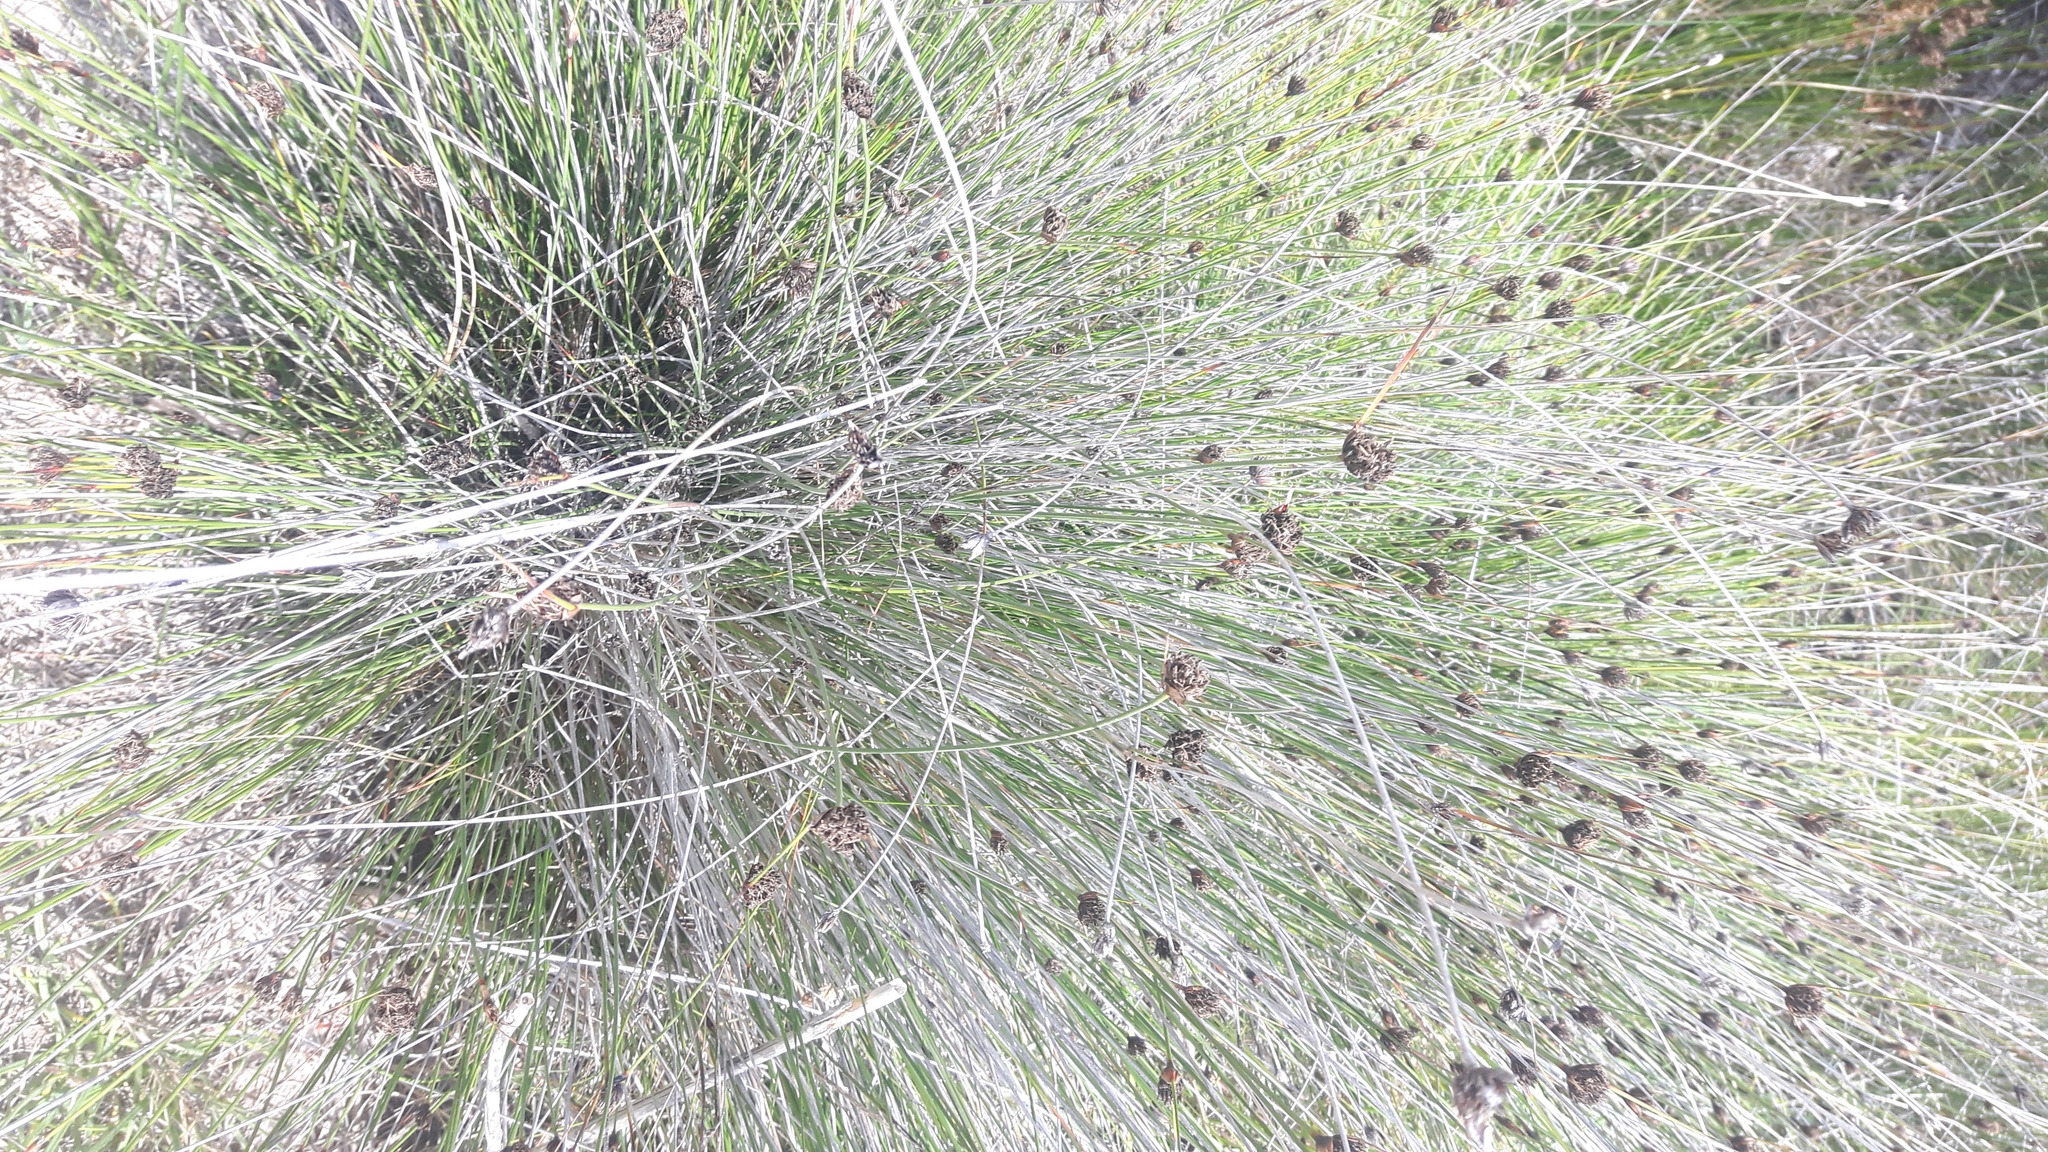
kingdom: Plantae
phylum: Tracheophyta
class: Liliopsida
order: Poales
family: Cyperaceae
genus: Schoenus
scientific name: Schoenus nigricans
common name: Black bog-rush
